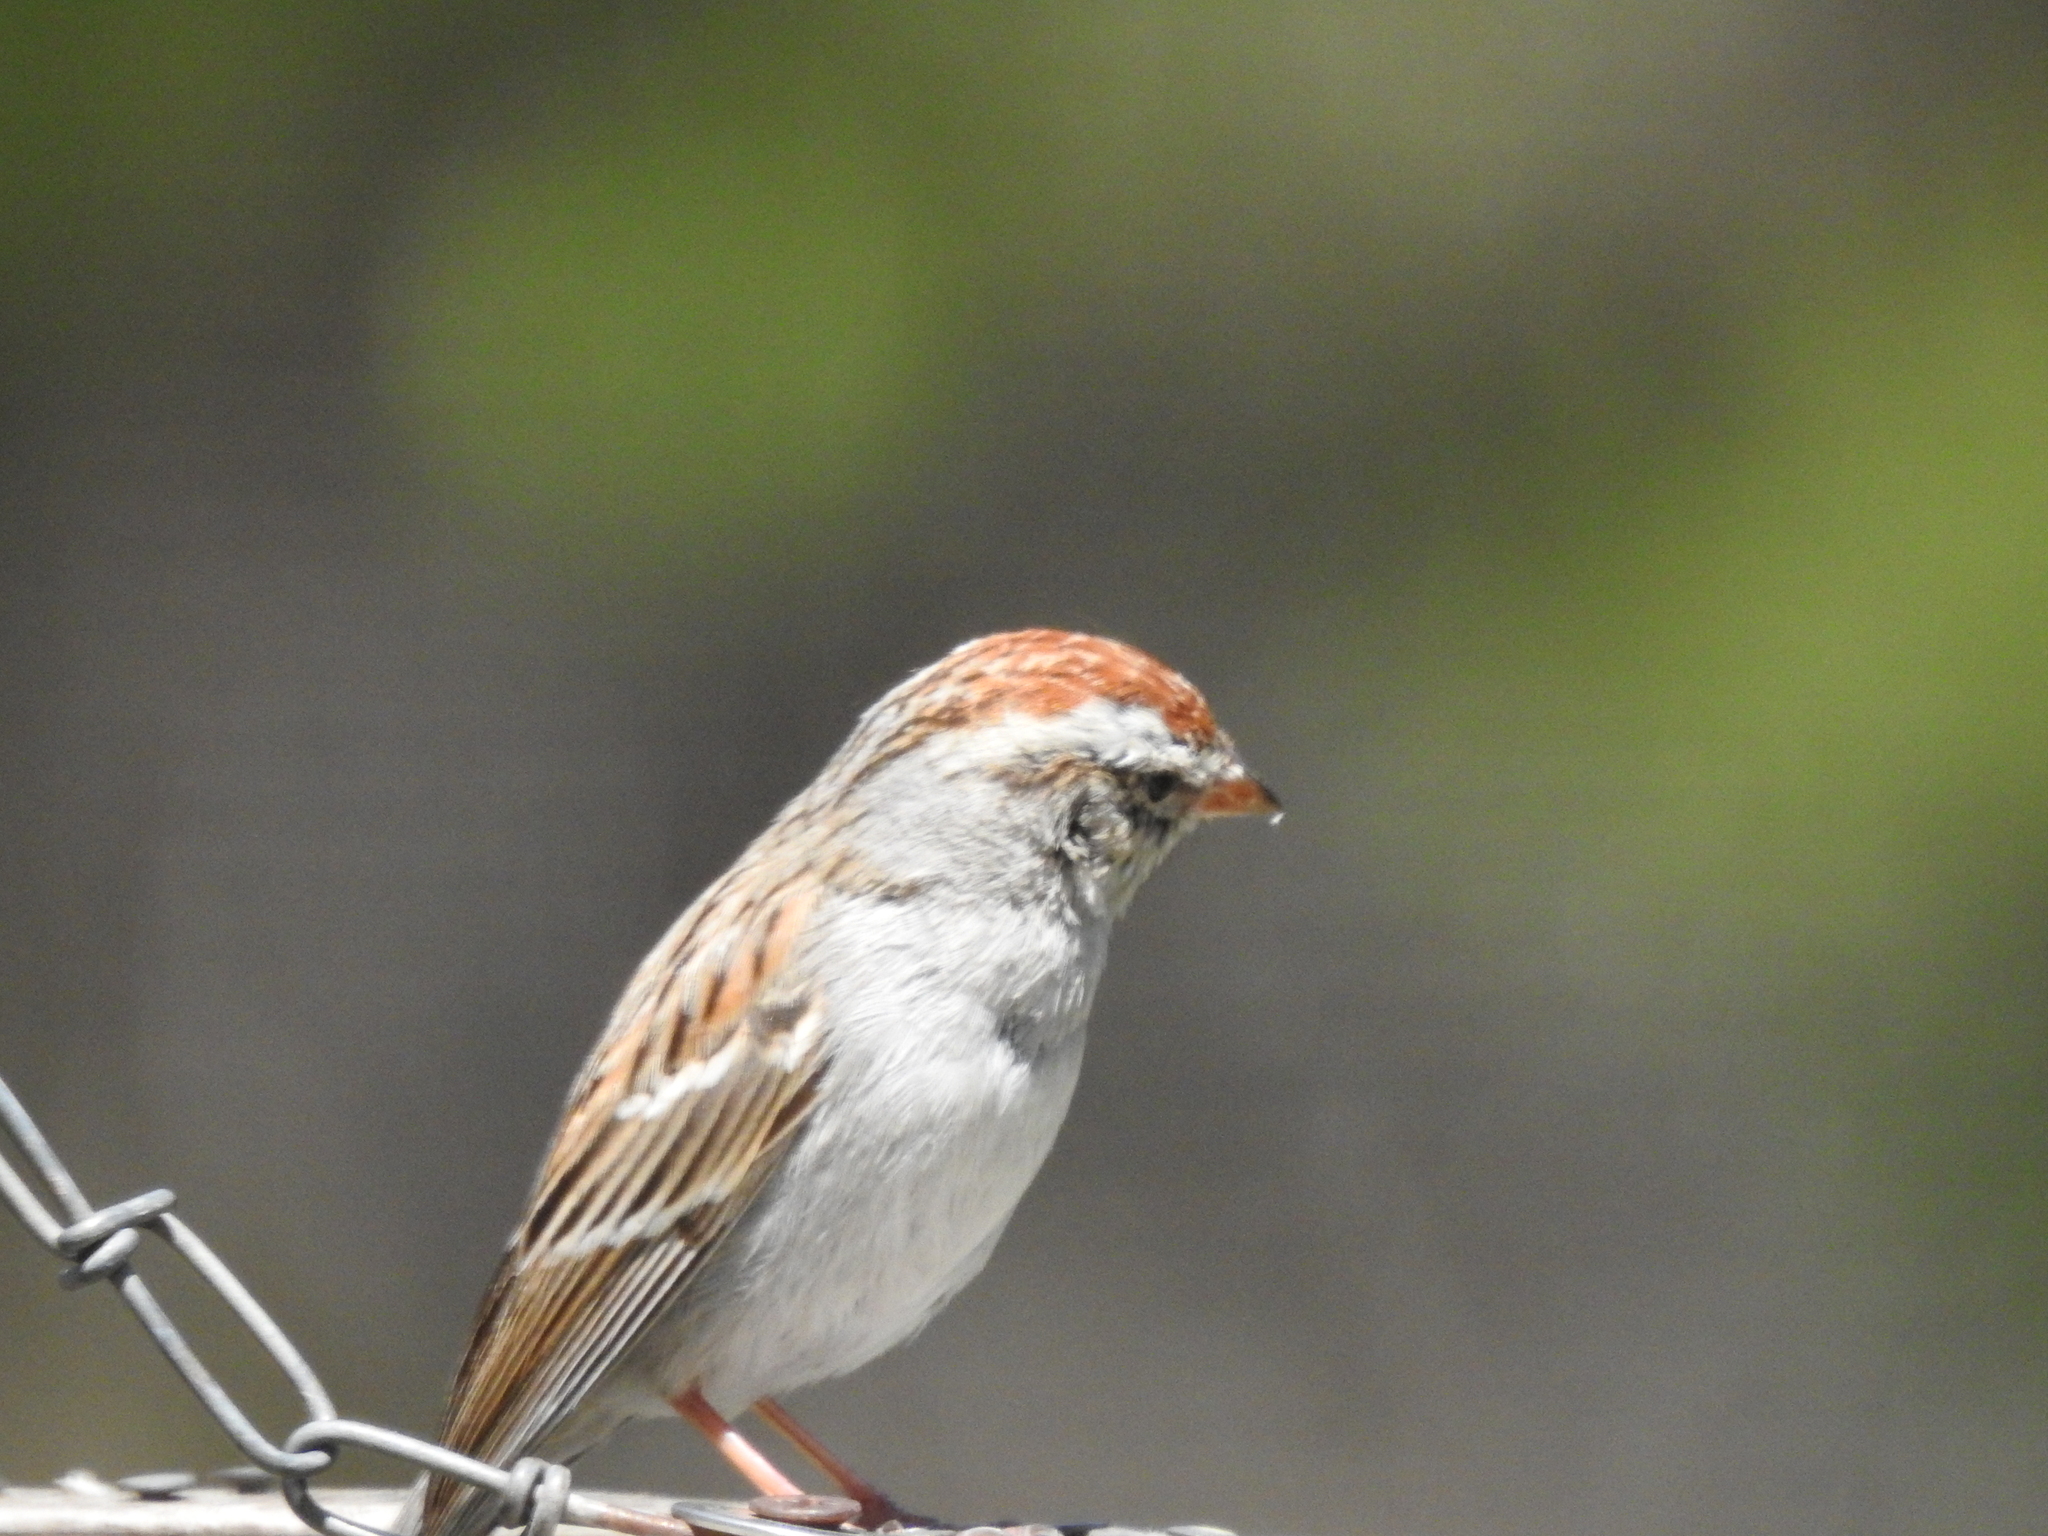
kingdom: Animalia
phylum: Chordata
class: Aves
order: Passeriformes
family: Passerellidae
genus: Spizella
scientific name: Spizella passerina
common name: Chipping sparrow
